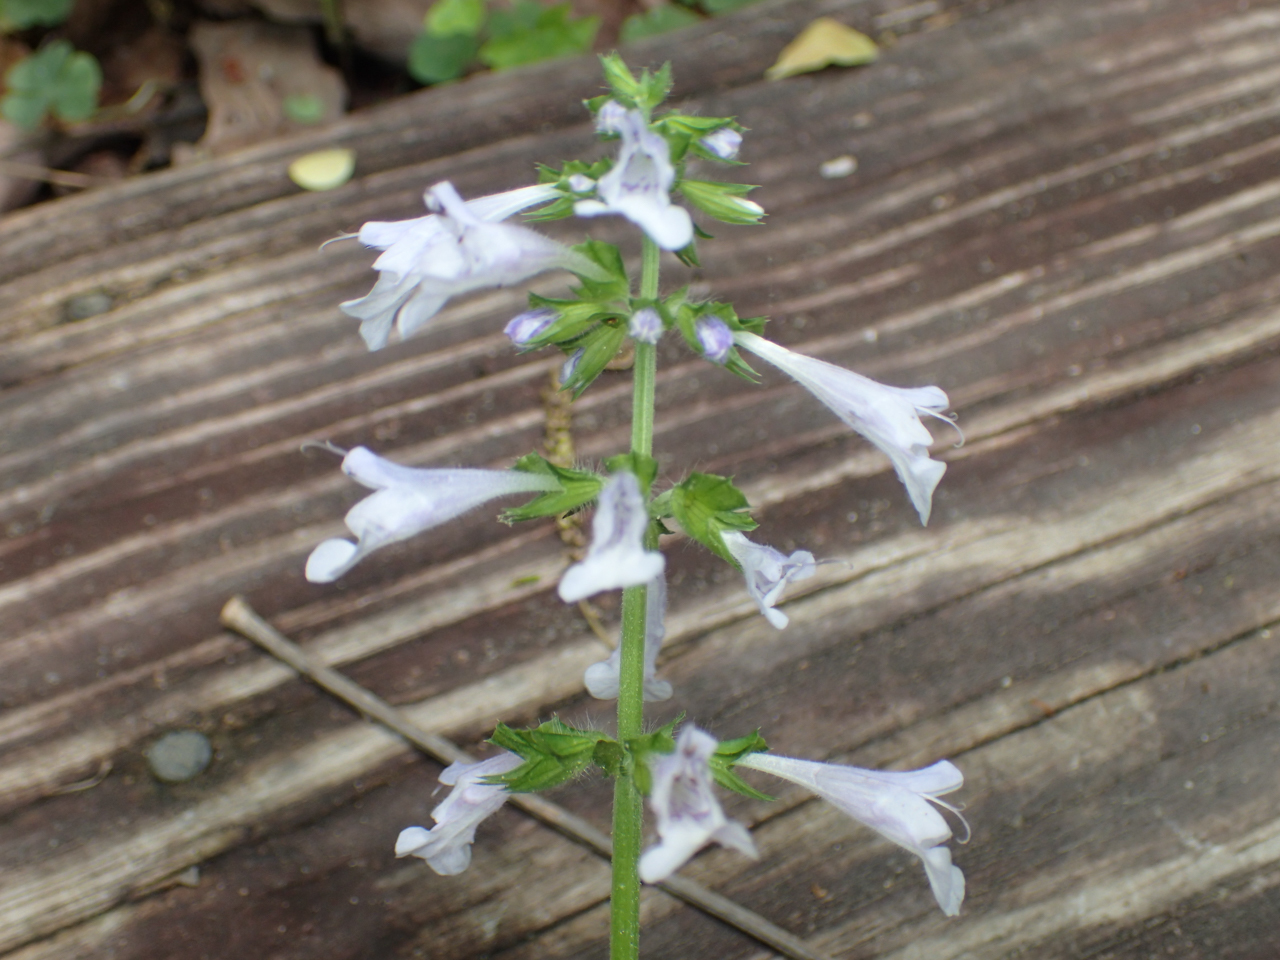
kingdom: Plantae
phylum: Tracheophyta
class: Magnoliopsida
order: Lamiales
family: Lamiaceae
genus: Salvia
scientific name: Salvia lyrata
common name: Cancerweed
